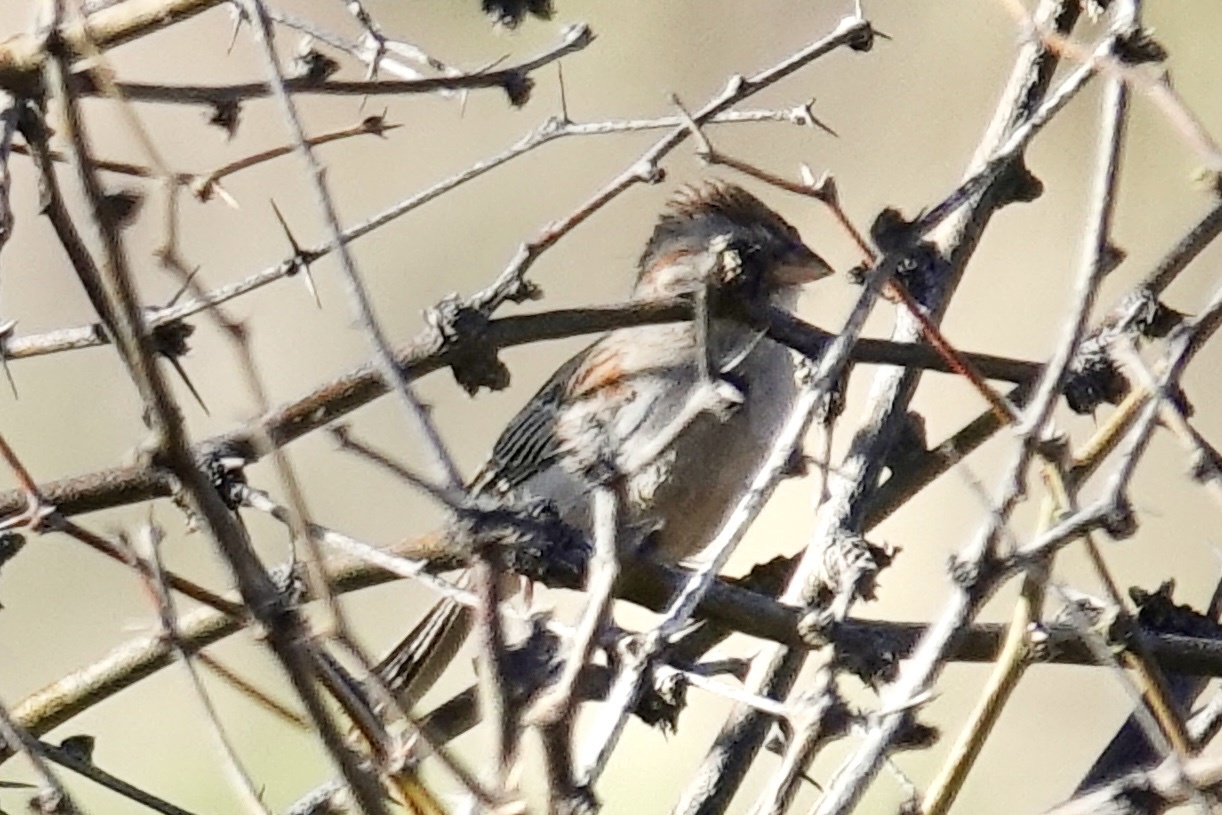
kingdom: Animalia
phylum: Chordata
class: Aves
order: Passeriformes
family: Passerellidae
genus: Peucaea
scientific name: Peucaea carpalis
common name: Rufous-winged sparrow
